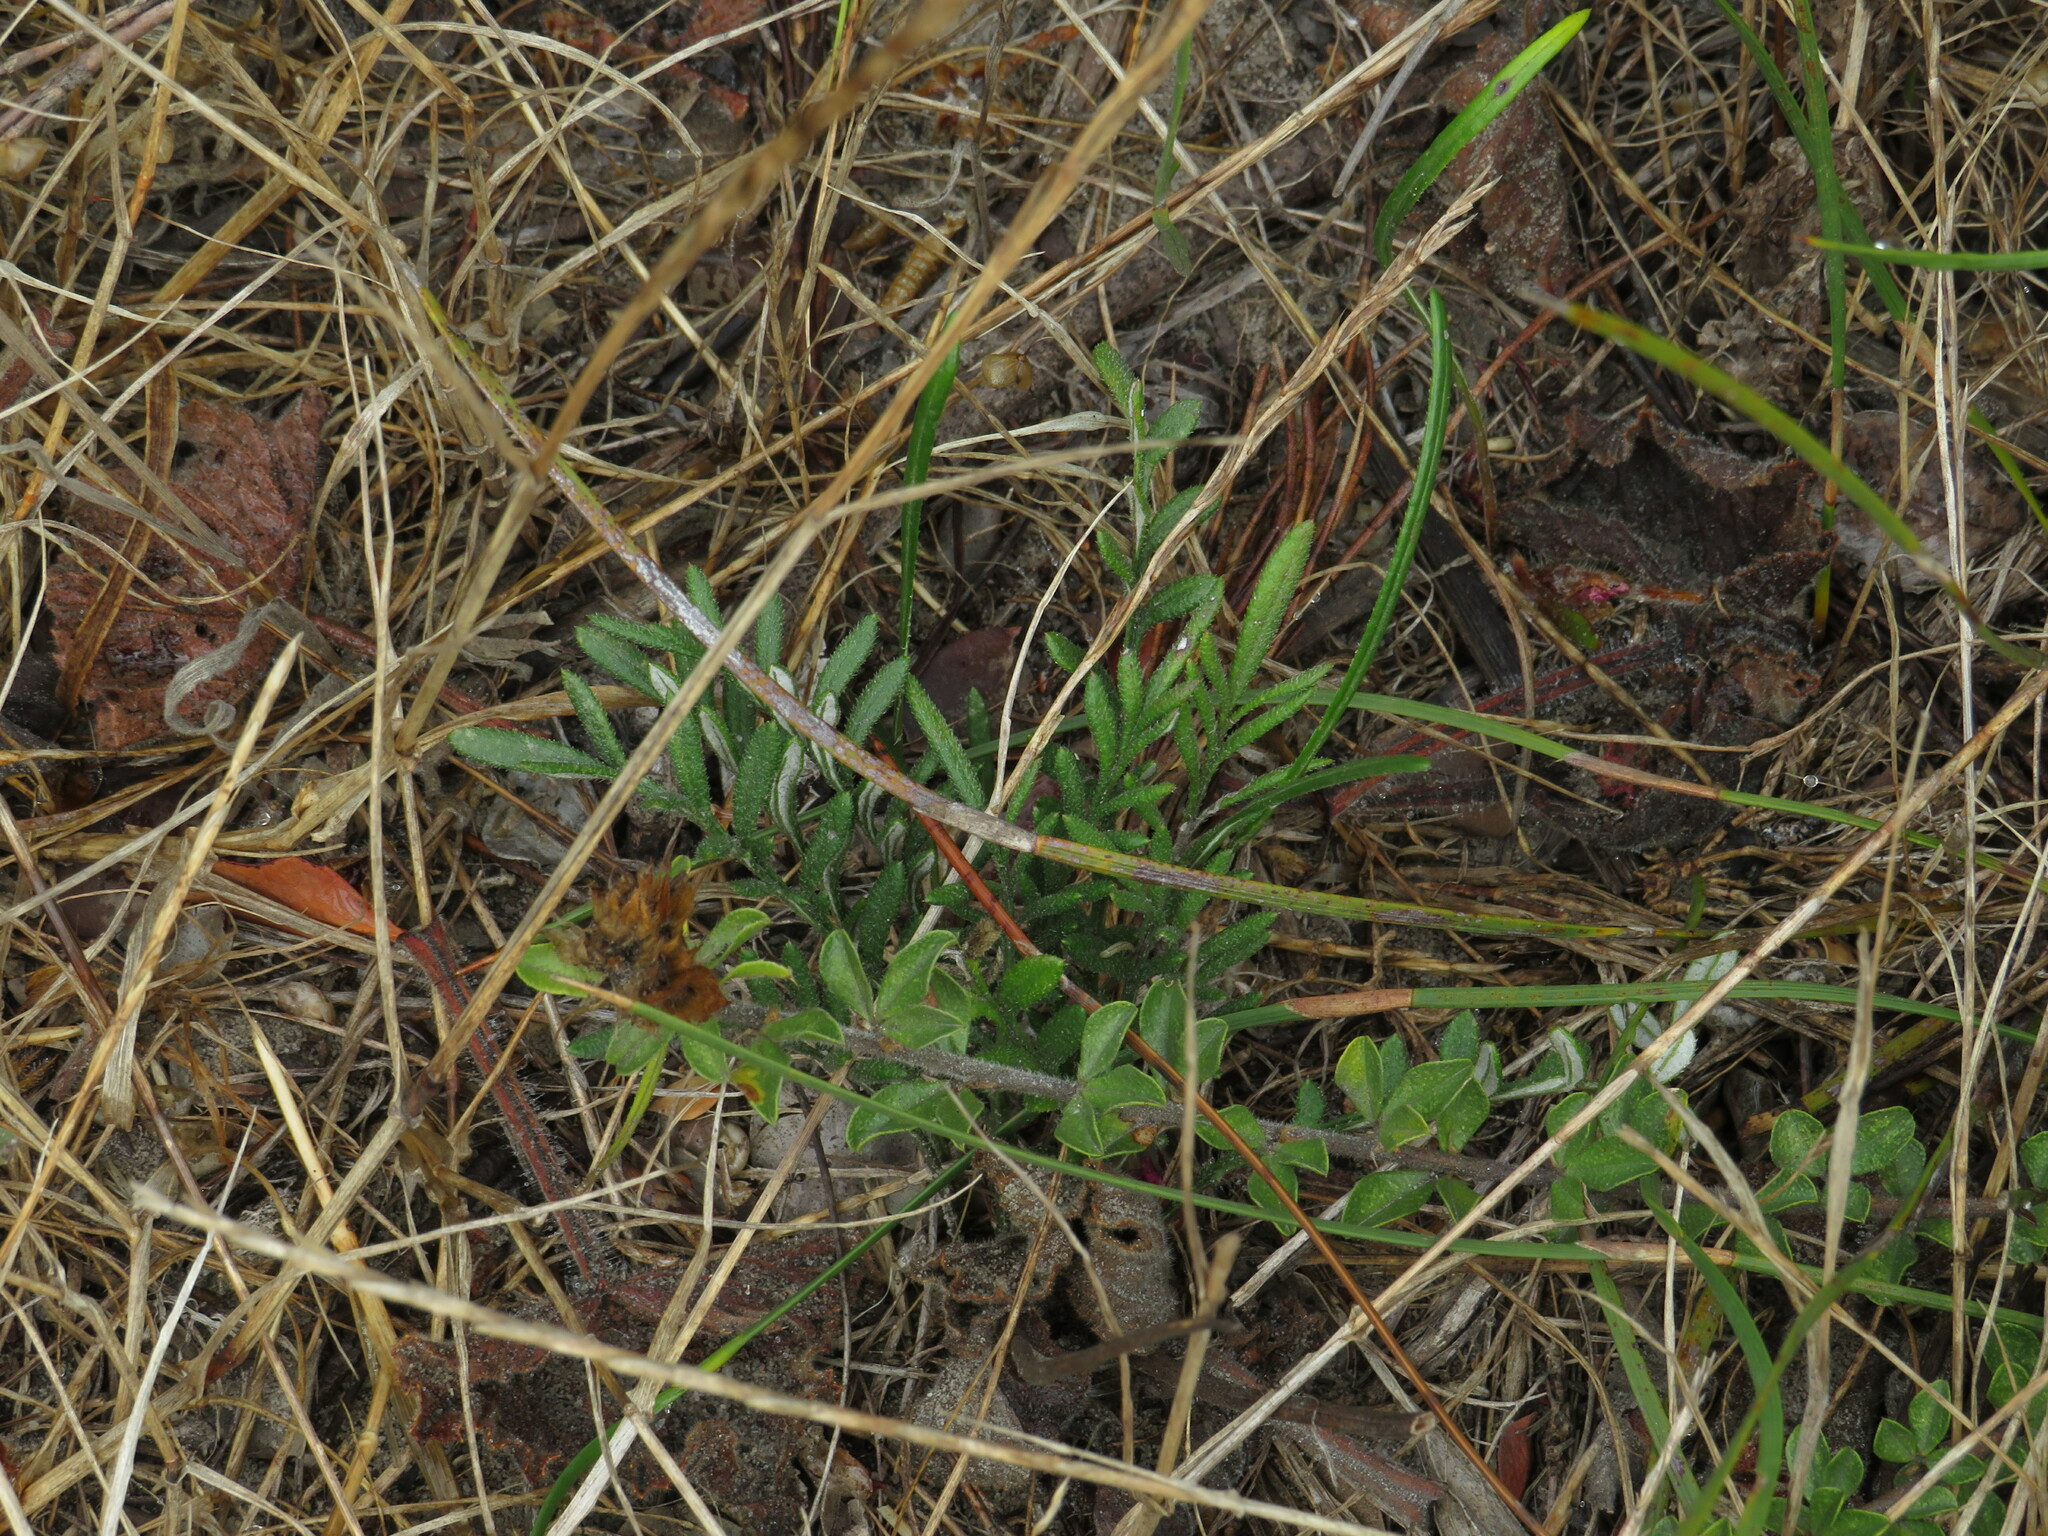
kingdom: Plantae
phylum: Tracheophyta
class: Magnoliopsida
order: Asterales
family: Asteraceae
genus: Gazania
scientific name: Gazania pectinata
